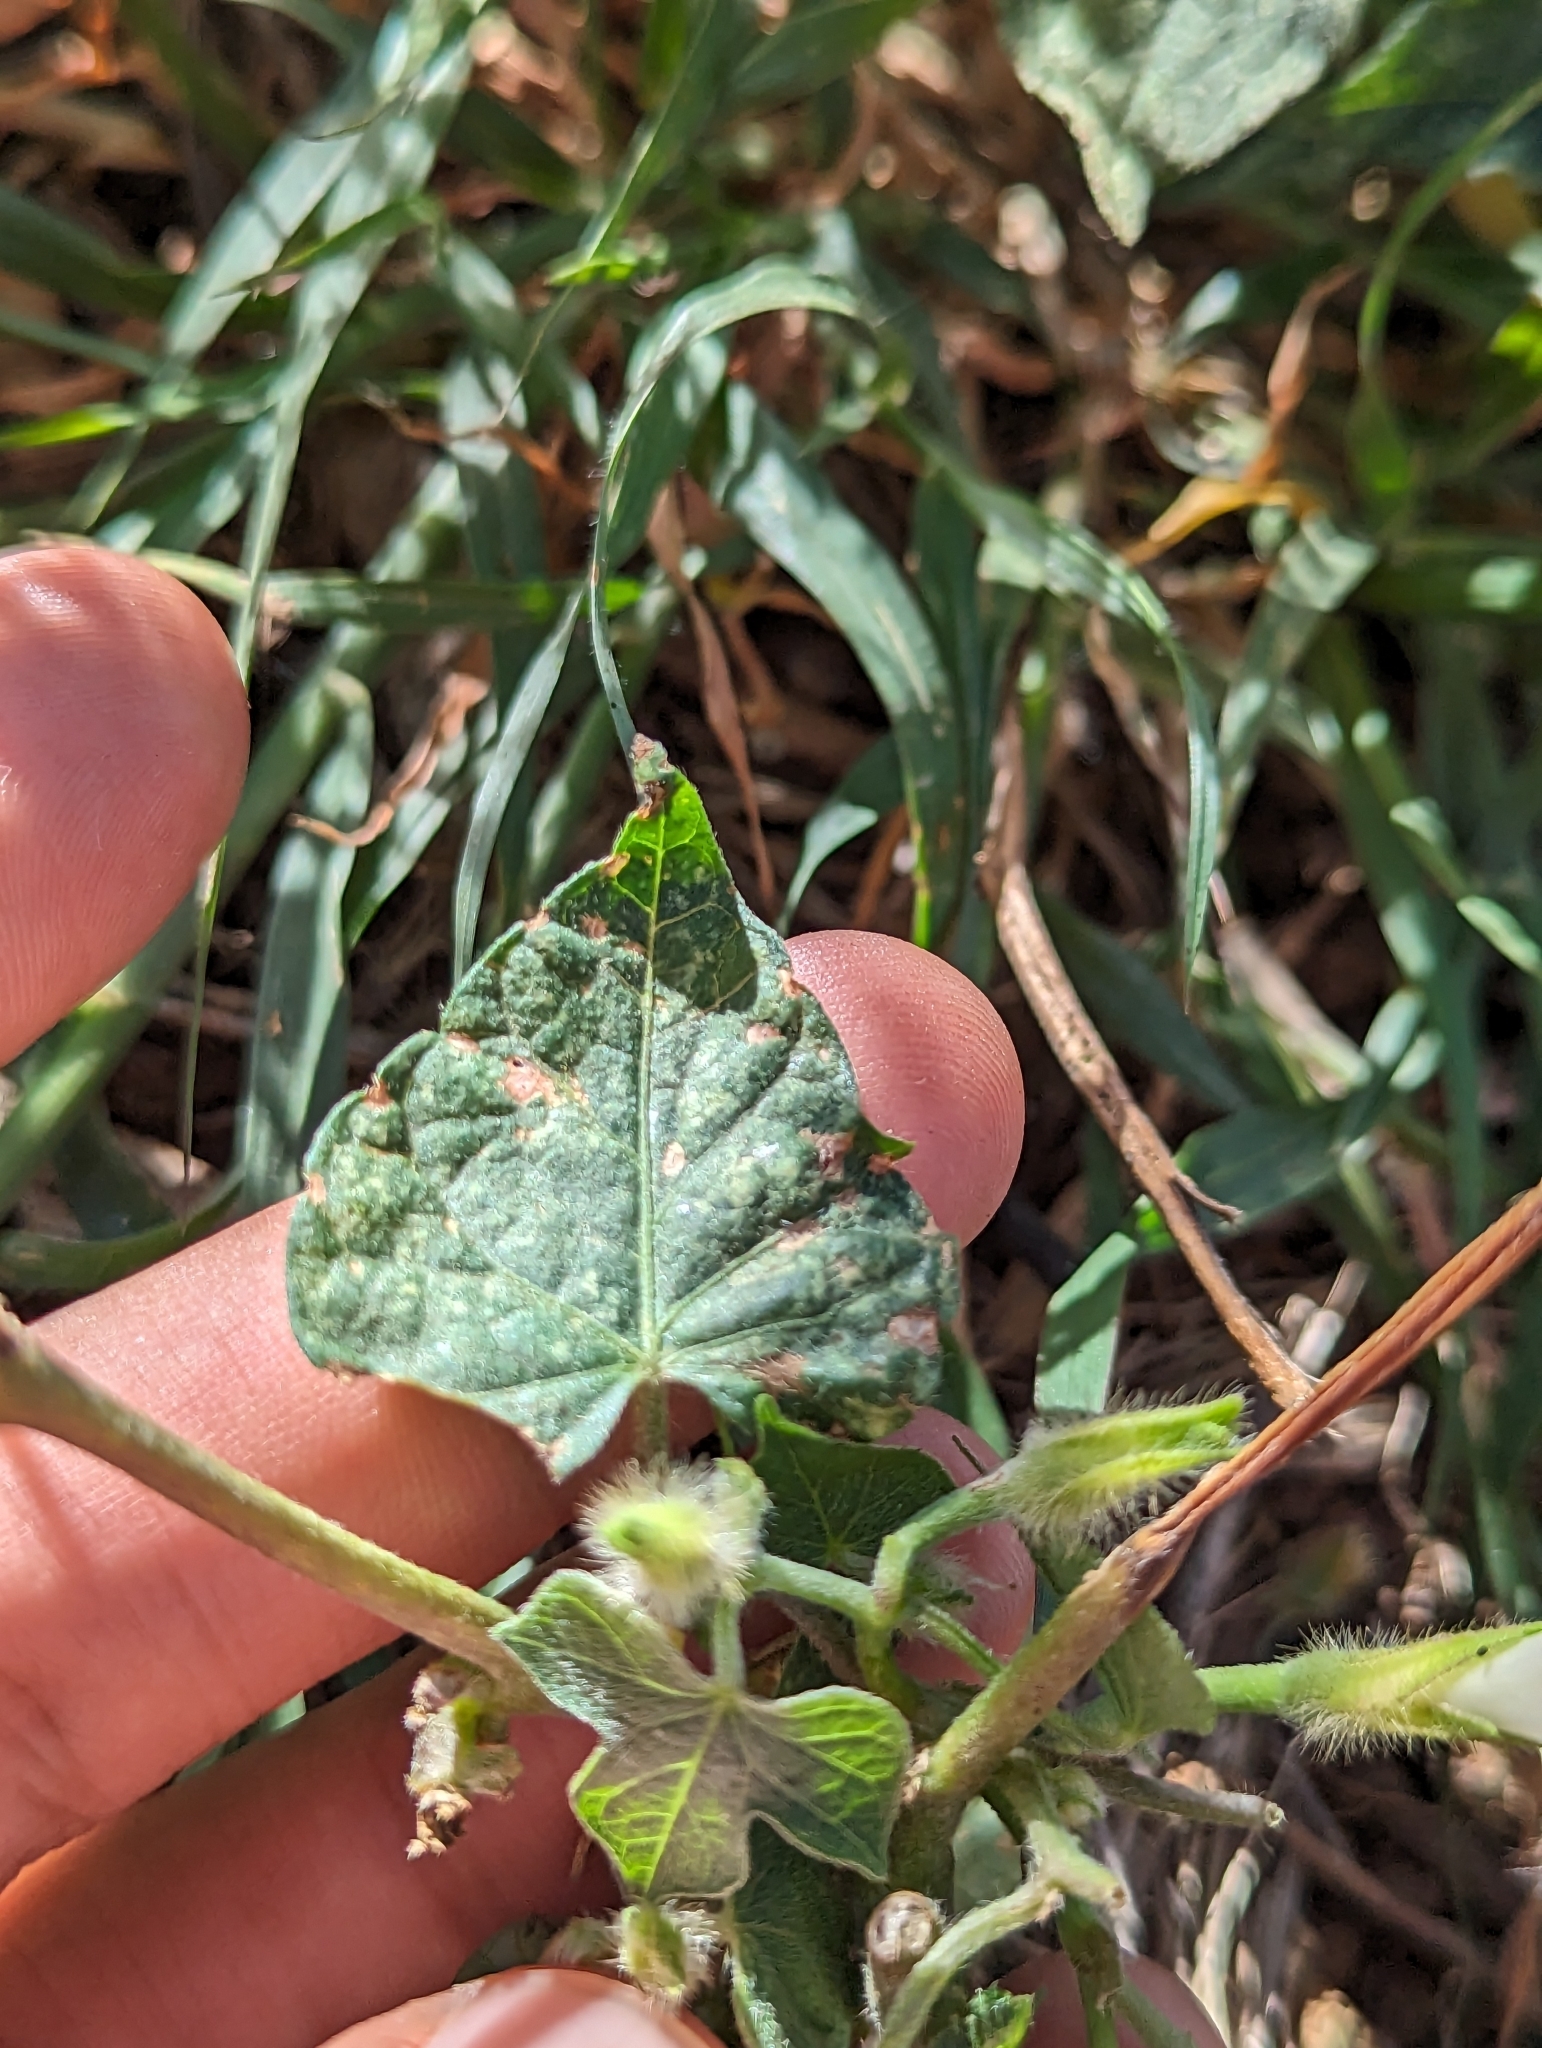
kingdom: Plantae
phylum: Tracheophyta
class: Magnoliopsida
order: Solanales
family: Convolvulaceae
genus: Ipomoea
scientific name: Ipomoea purpurea
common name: Common morning-glory
